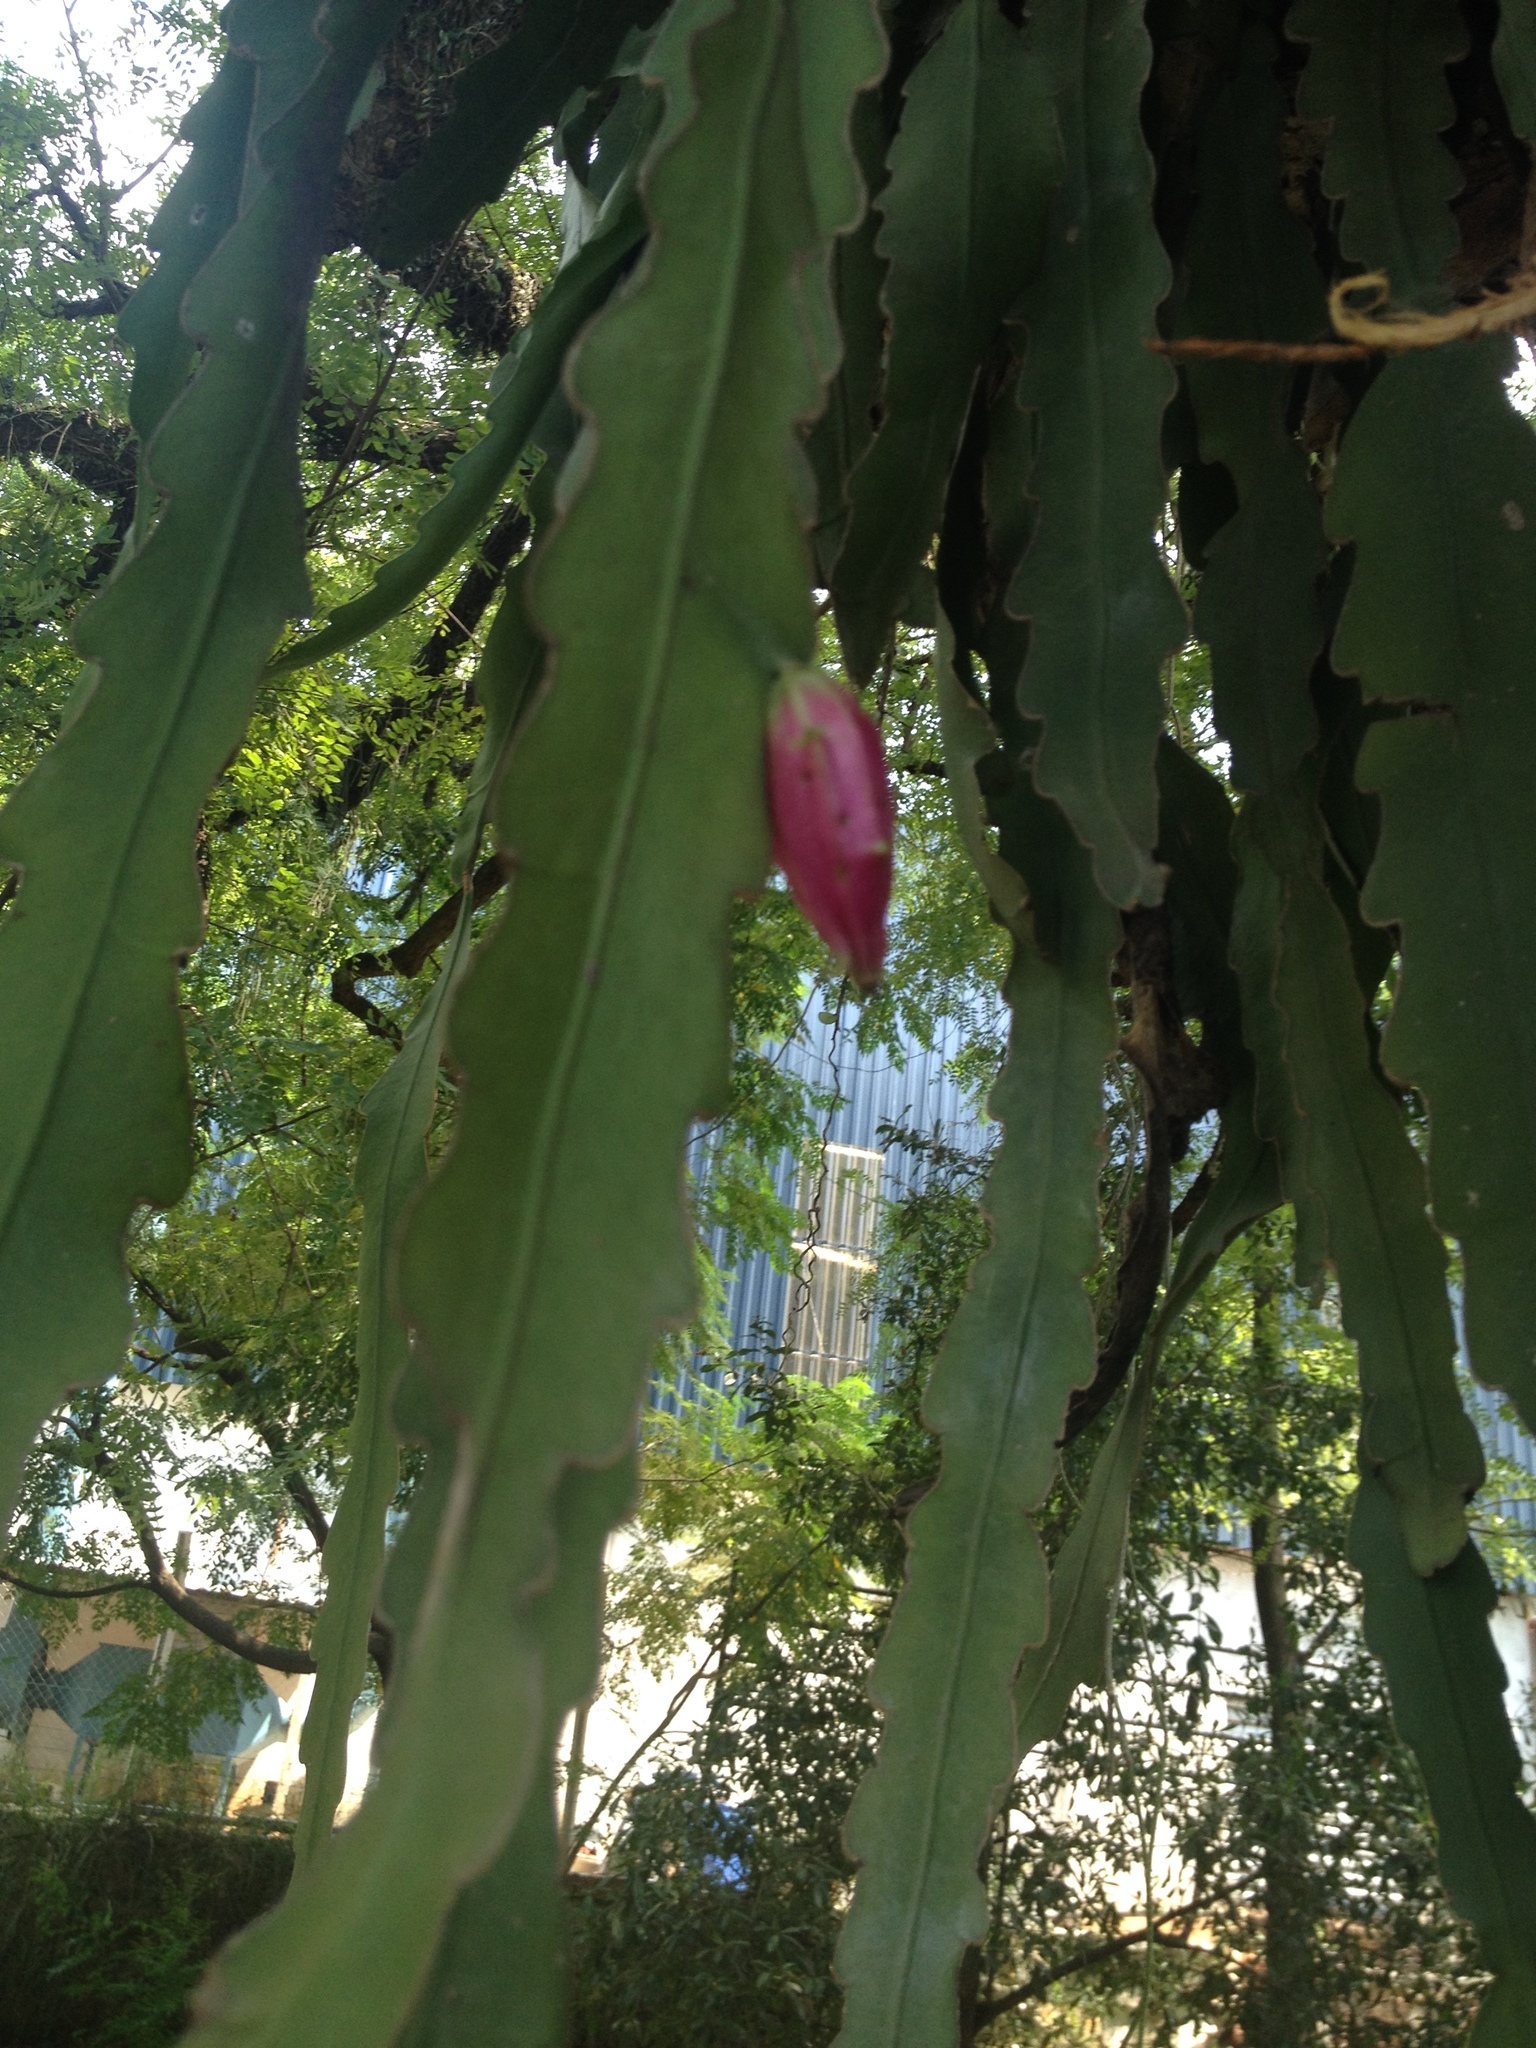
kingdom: Plantae
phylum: Tracheophyta
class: Magnoliopsida
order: Caryophyllales
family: Cactaceae
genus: Epiphyllum
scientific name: Epiphyllum phyllanthus
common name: Climbing cactus
